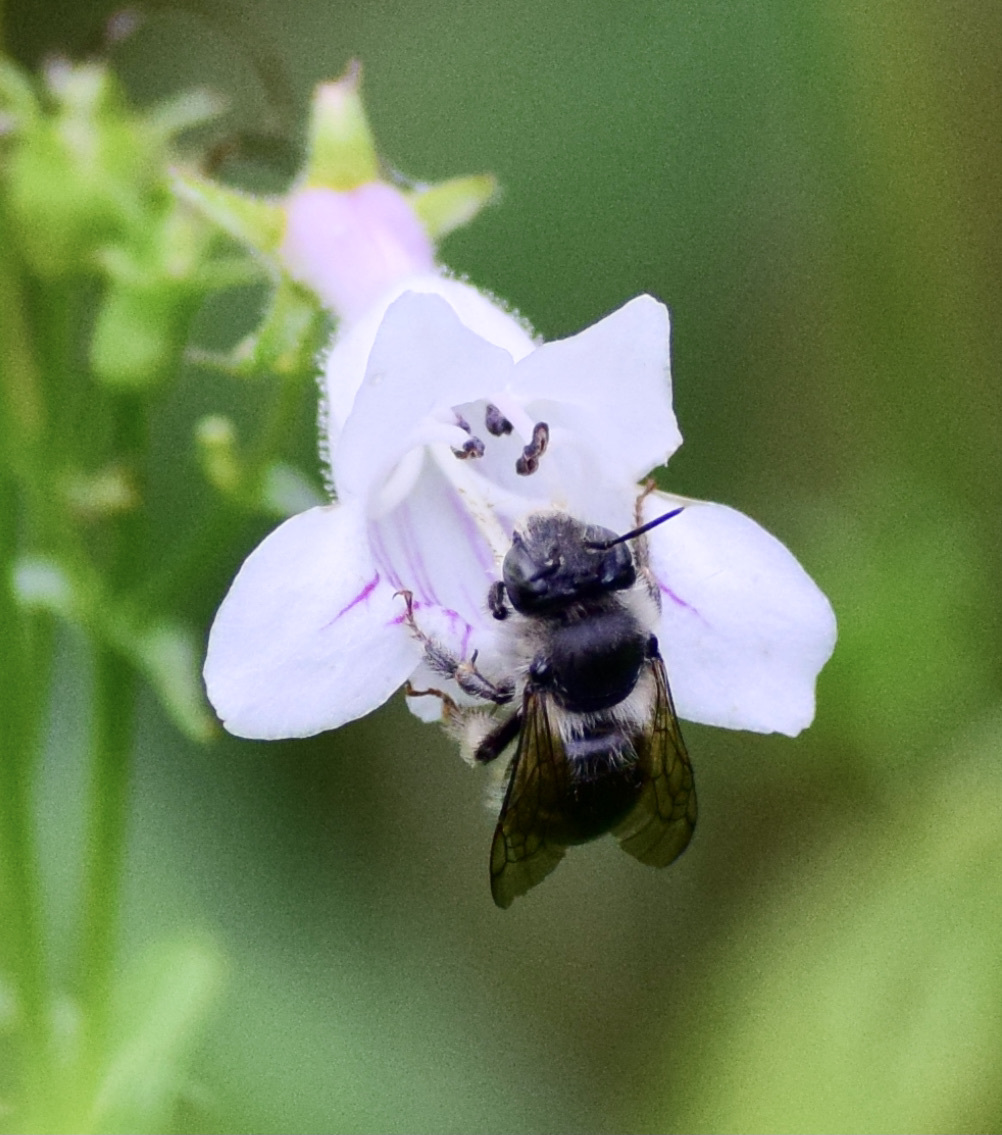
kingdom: Animalia
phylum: Arthropoda
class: Insecta
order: Hymenoptera
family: Apidae
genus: Anthophora
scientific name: Anthophora terminalis
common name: Orange-tipped wood-digger bee
